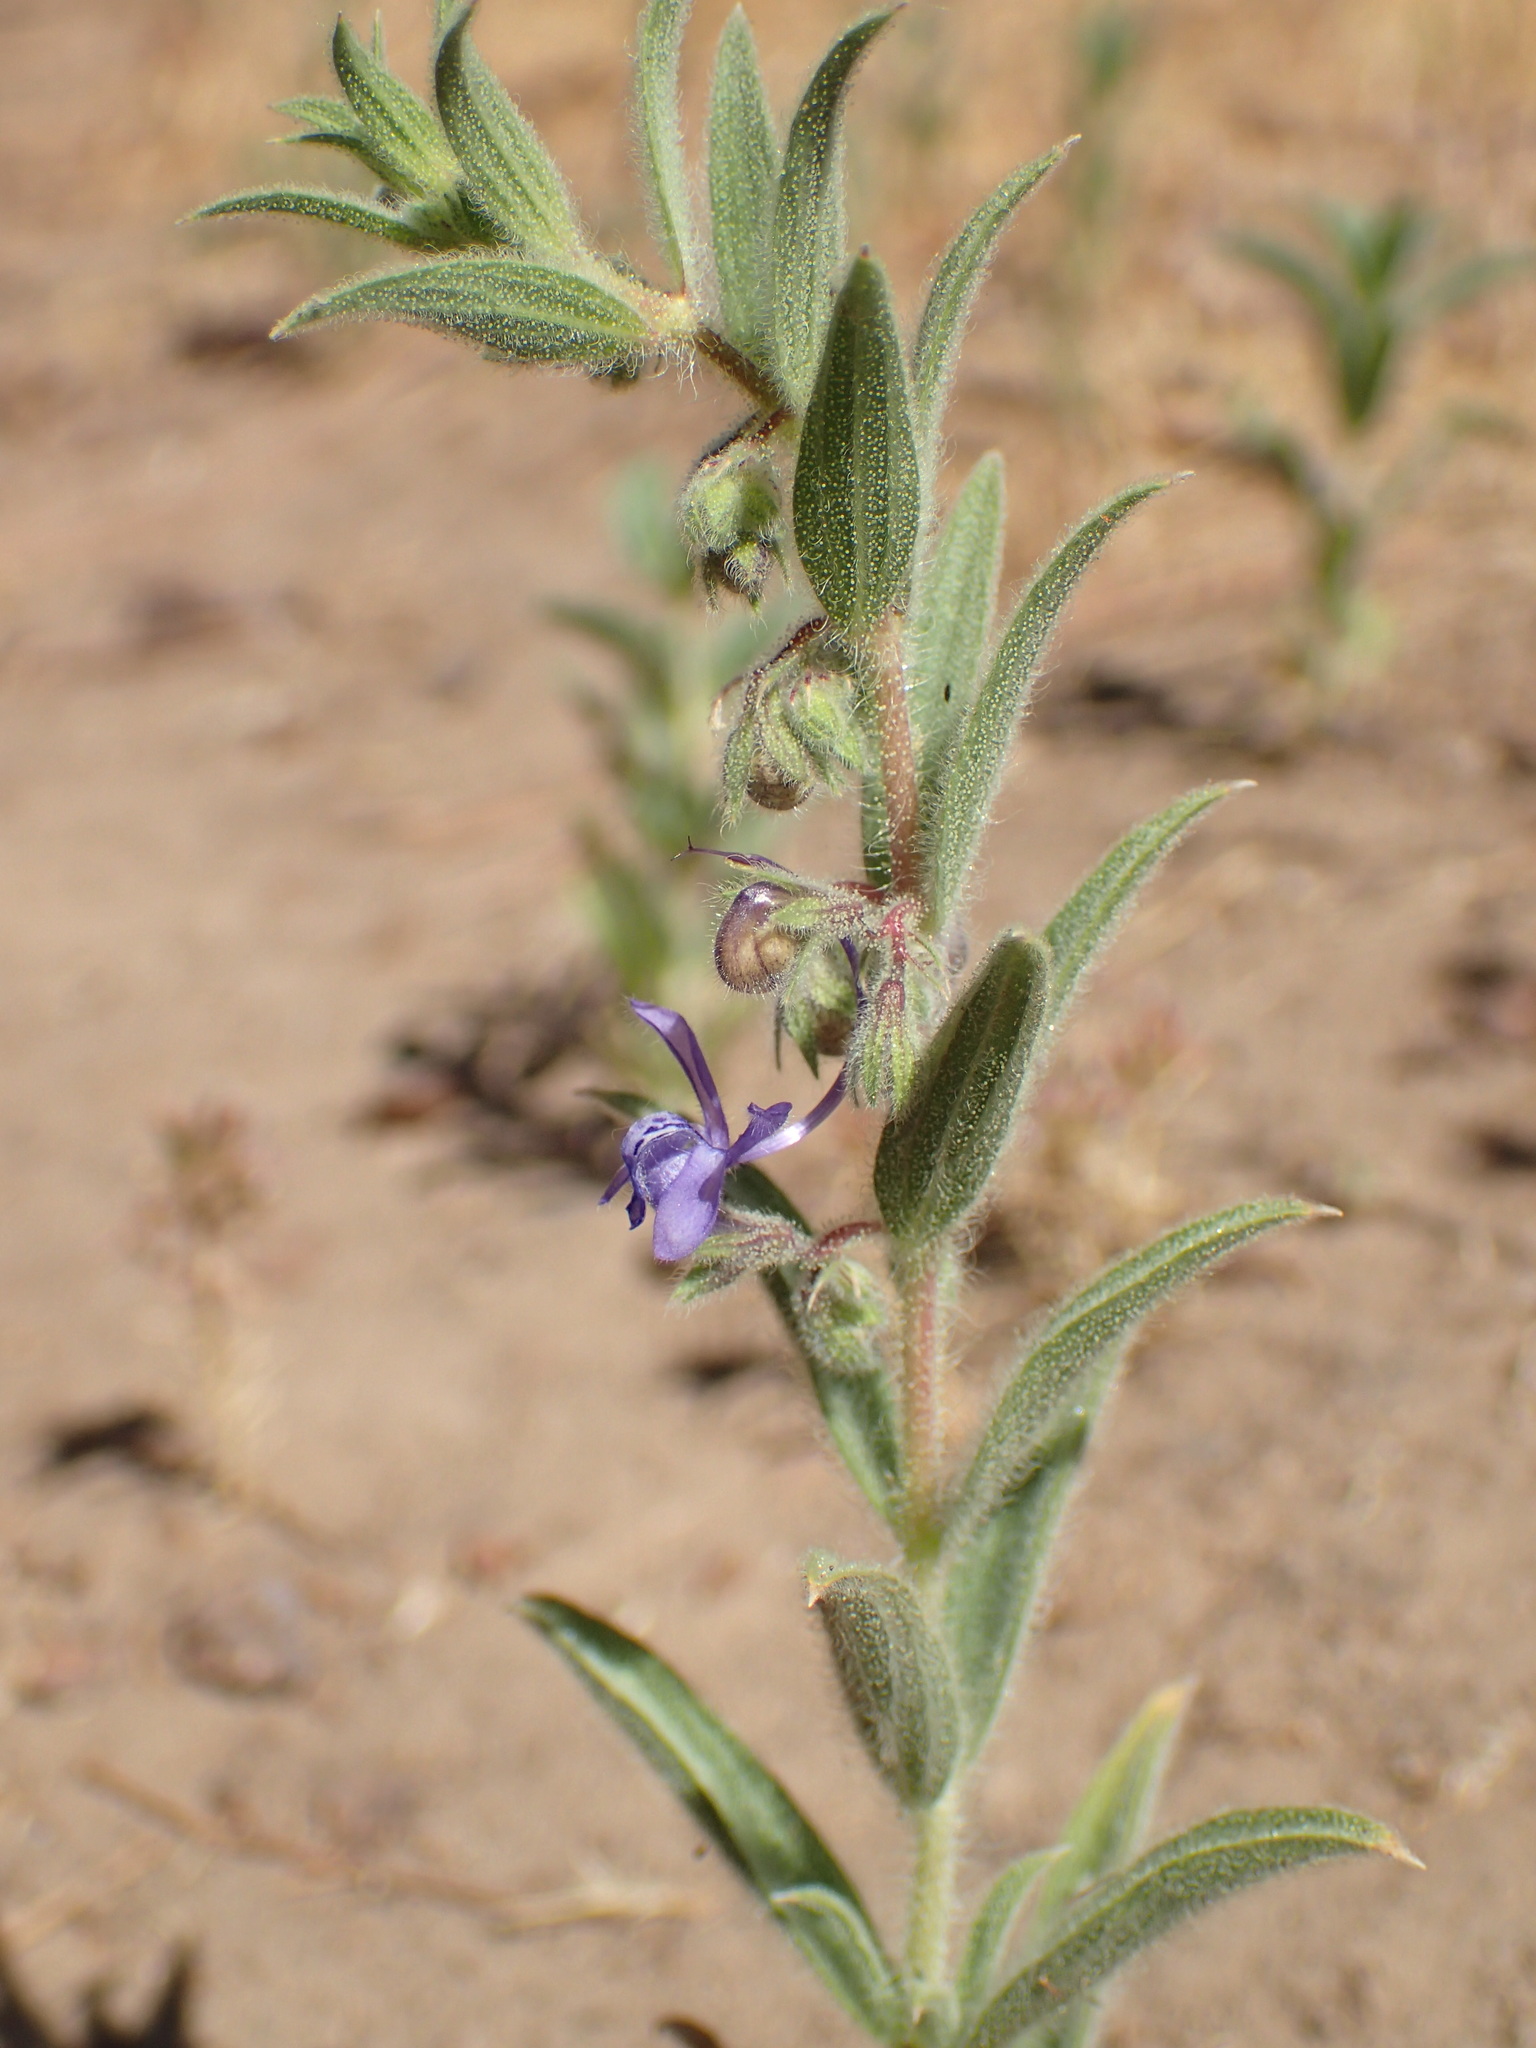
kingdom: Plantae
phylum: Tracheophyta
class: Magnoliopsida
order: Lamiales
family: Lamiaceae
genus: Trichostema
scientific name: Trichostema lanceolatum
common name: Vinegar-weed
